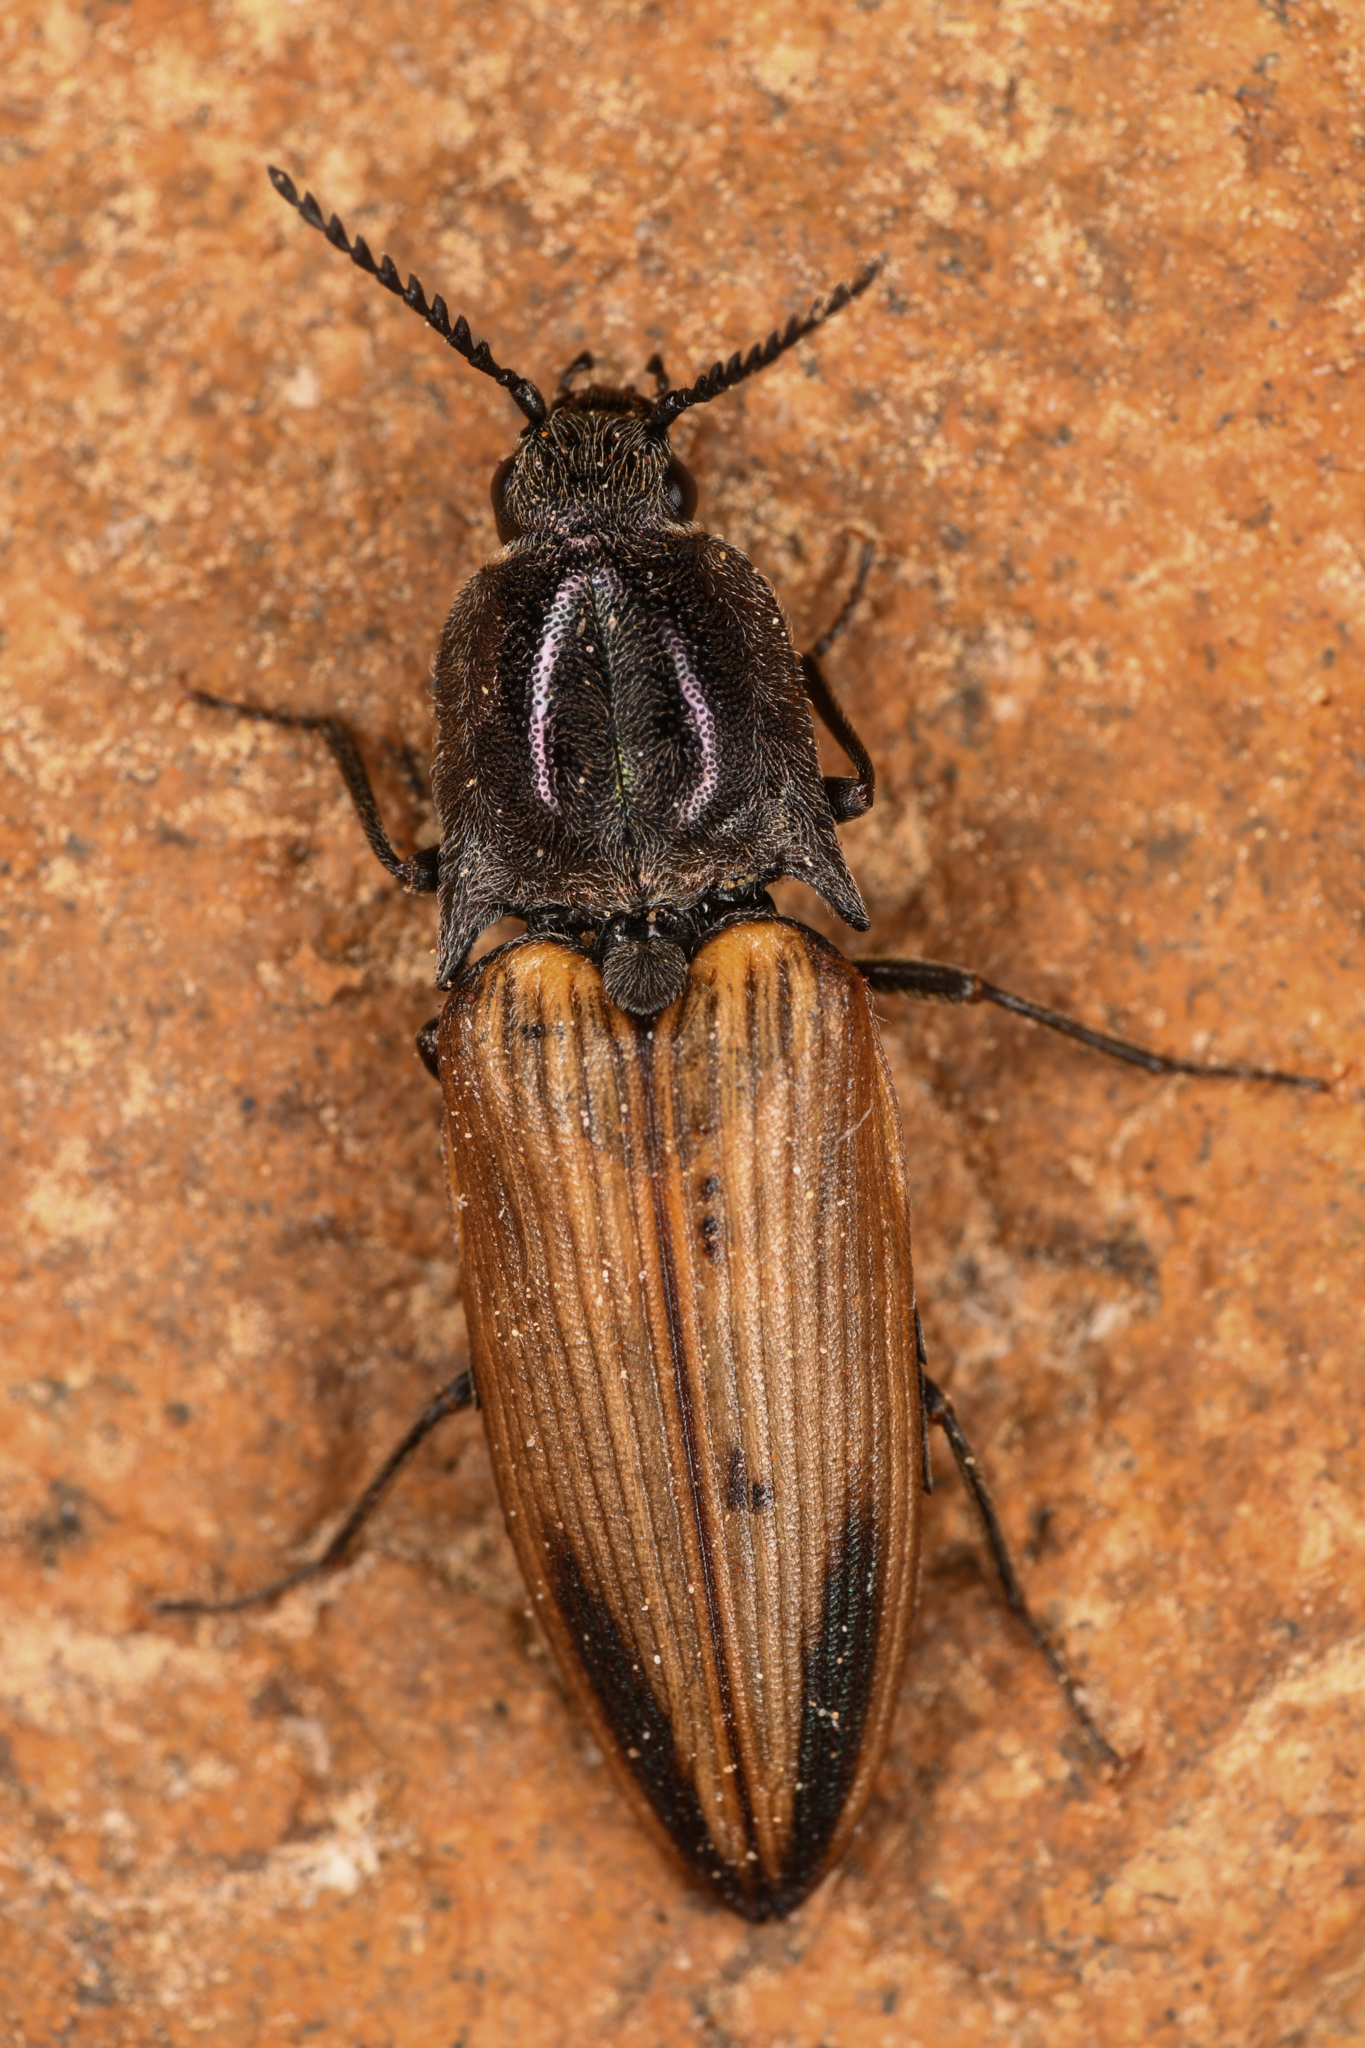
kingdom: Animalia
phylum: Arthropoda
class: Insecta
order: Coleoptera
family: Elateridae
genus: Ctenicera
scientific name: Ctenicera kendalli
